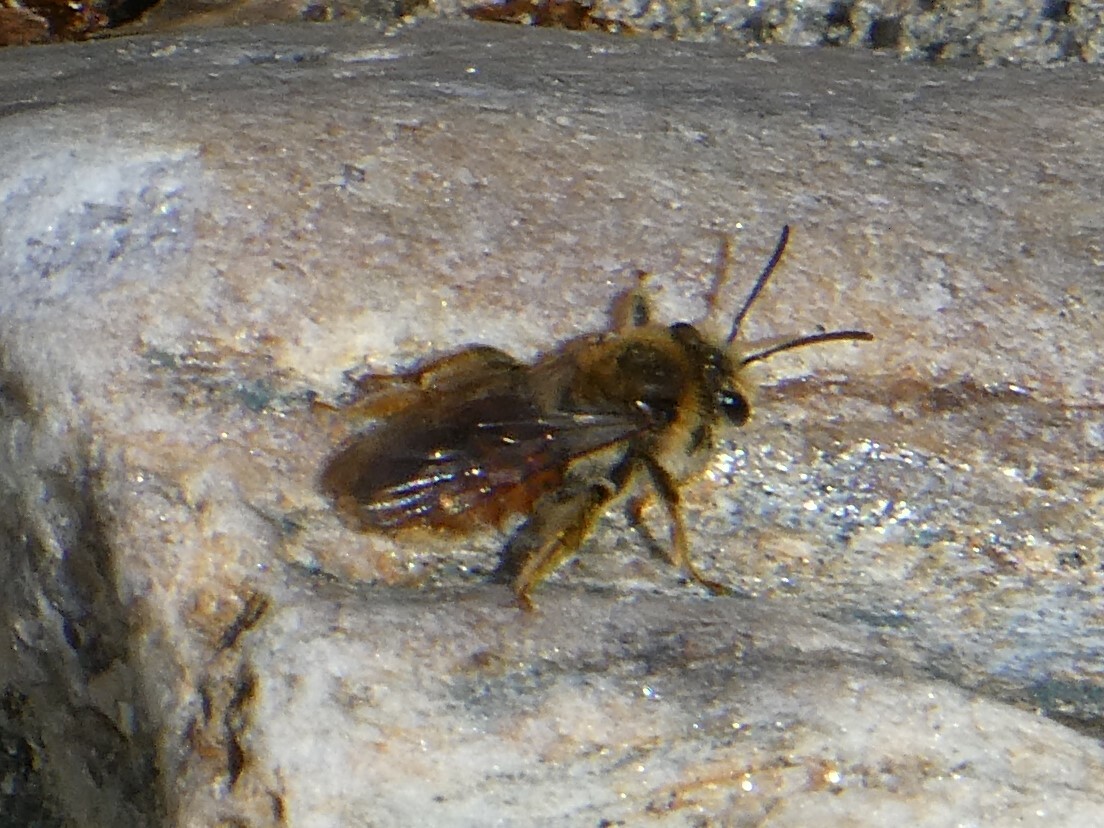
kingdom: Animalia
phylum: Arthropoda
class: Insecta
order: Hymenoptera
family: Andrenidae
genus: Andrena
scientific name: Andrena erythrogaster
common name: Red-tailed mining bee
